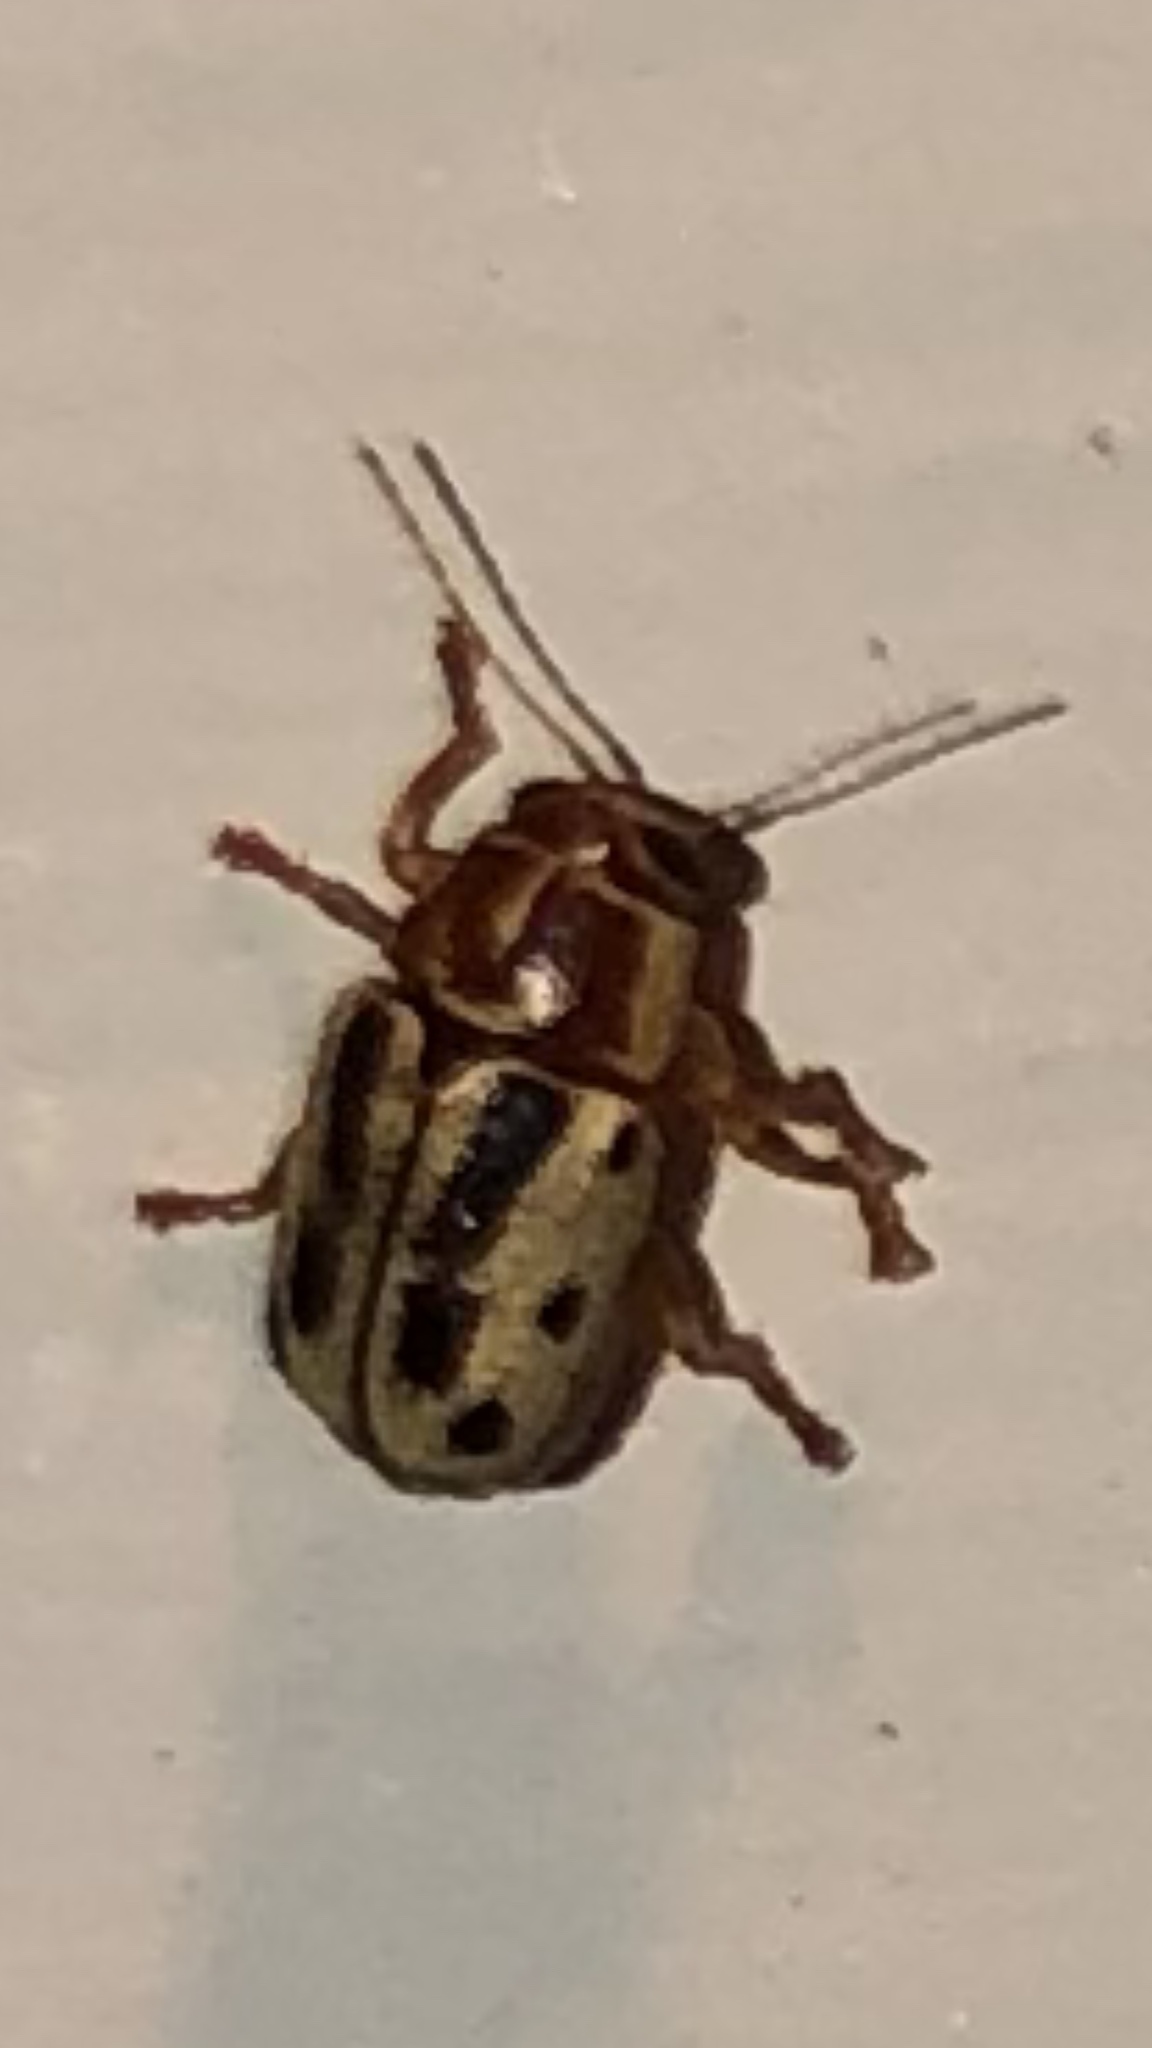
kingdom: Animalia
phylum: Arthropoda
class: Insecta
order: Coleoptera
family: Chrysomelidae
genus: Pachybrachis
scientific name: Pachybrachis bivittatus
